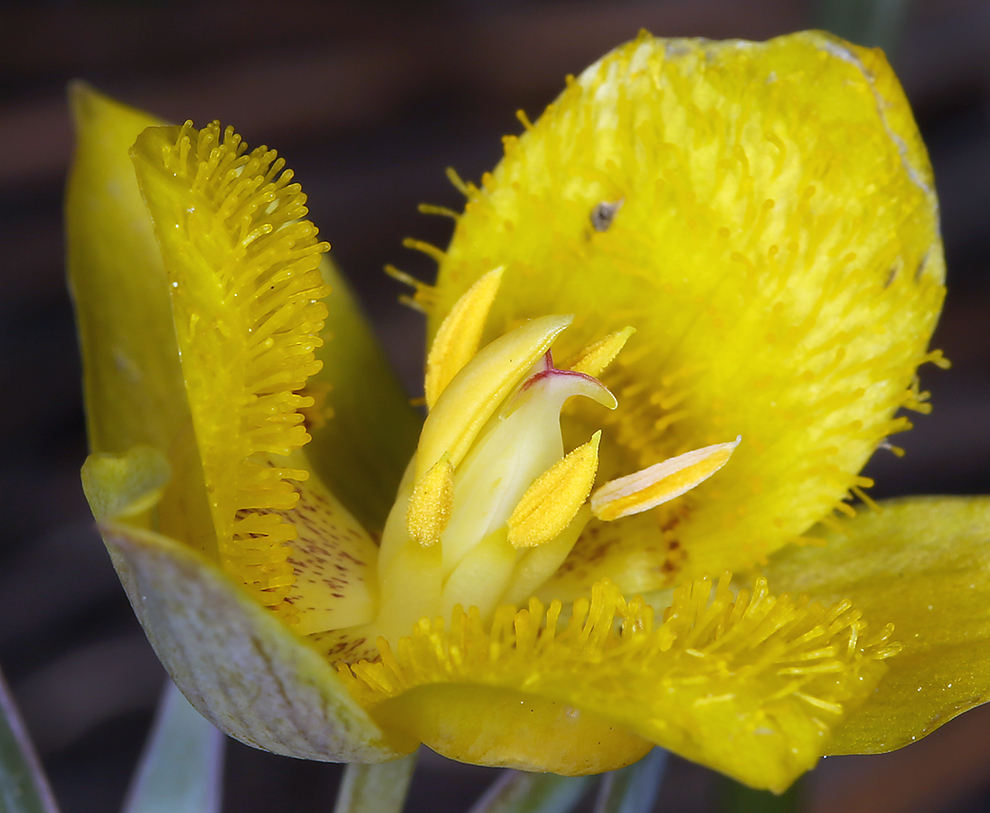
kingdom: Plantae
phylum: Tracheophyta
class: Liliopsida
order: Liliales
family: Liliaceae
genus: Calochortus
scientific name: Calochortus monophyllus
